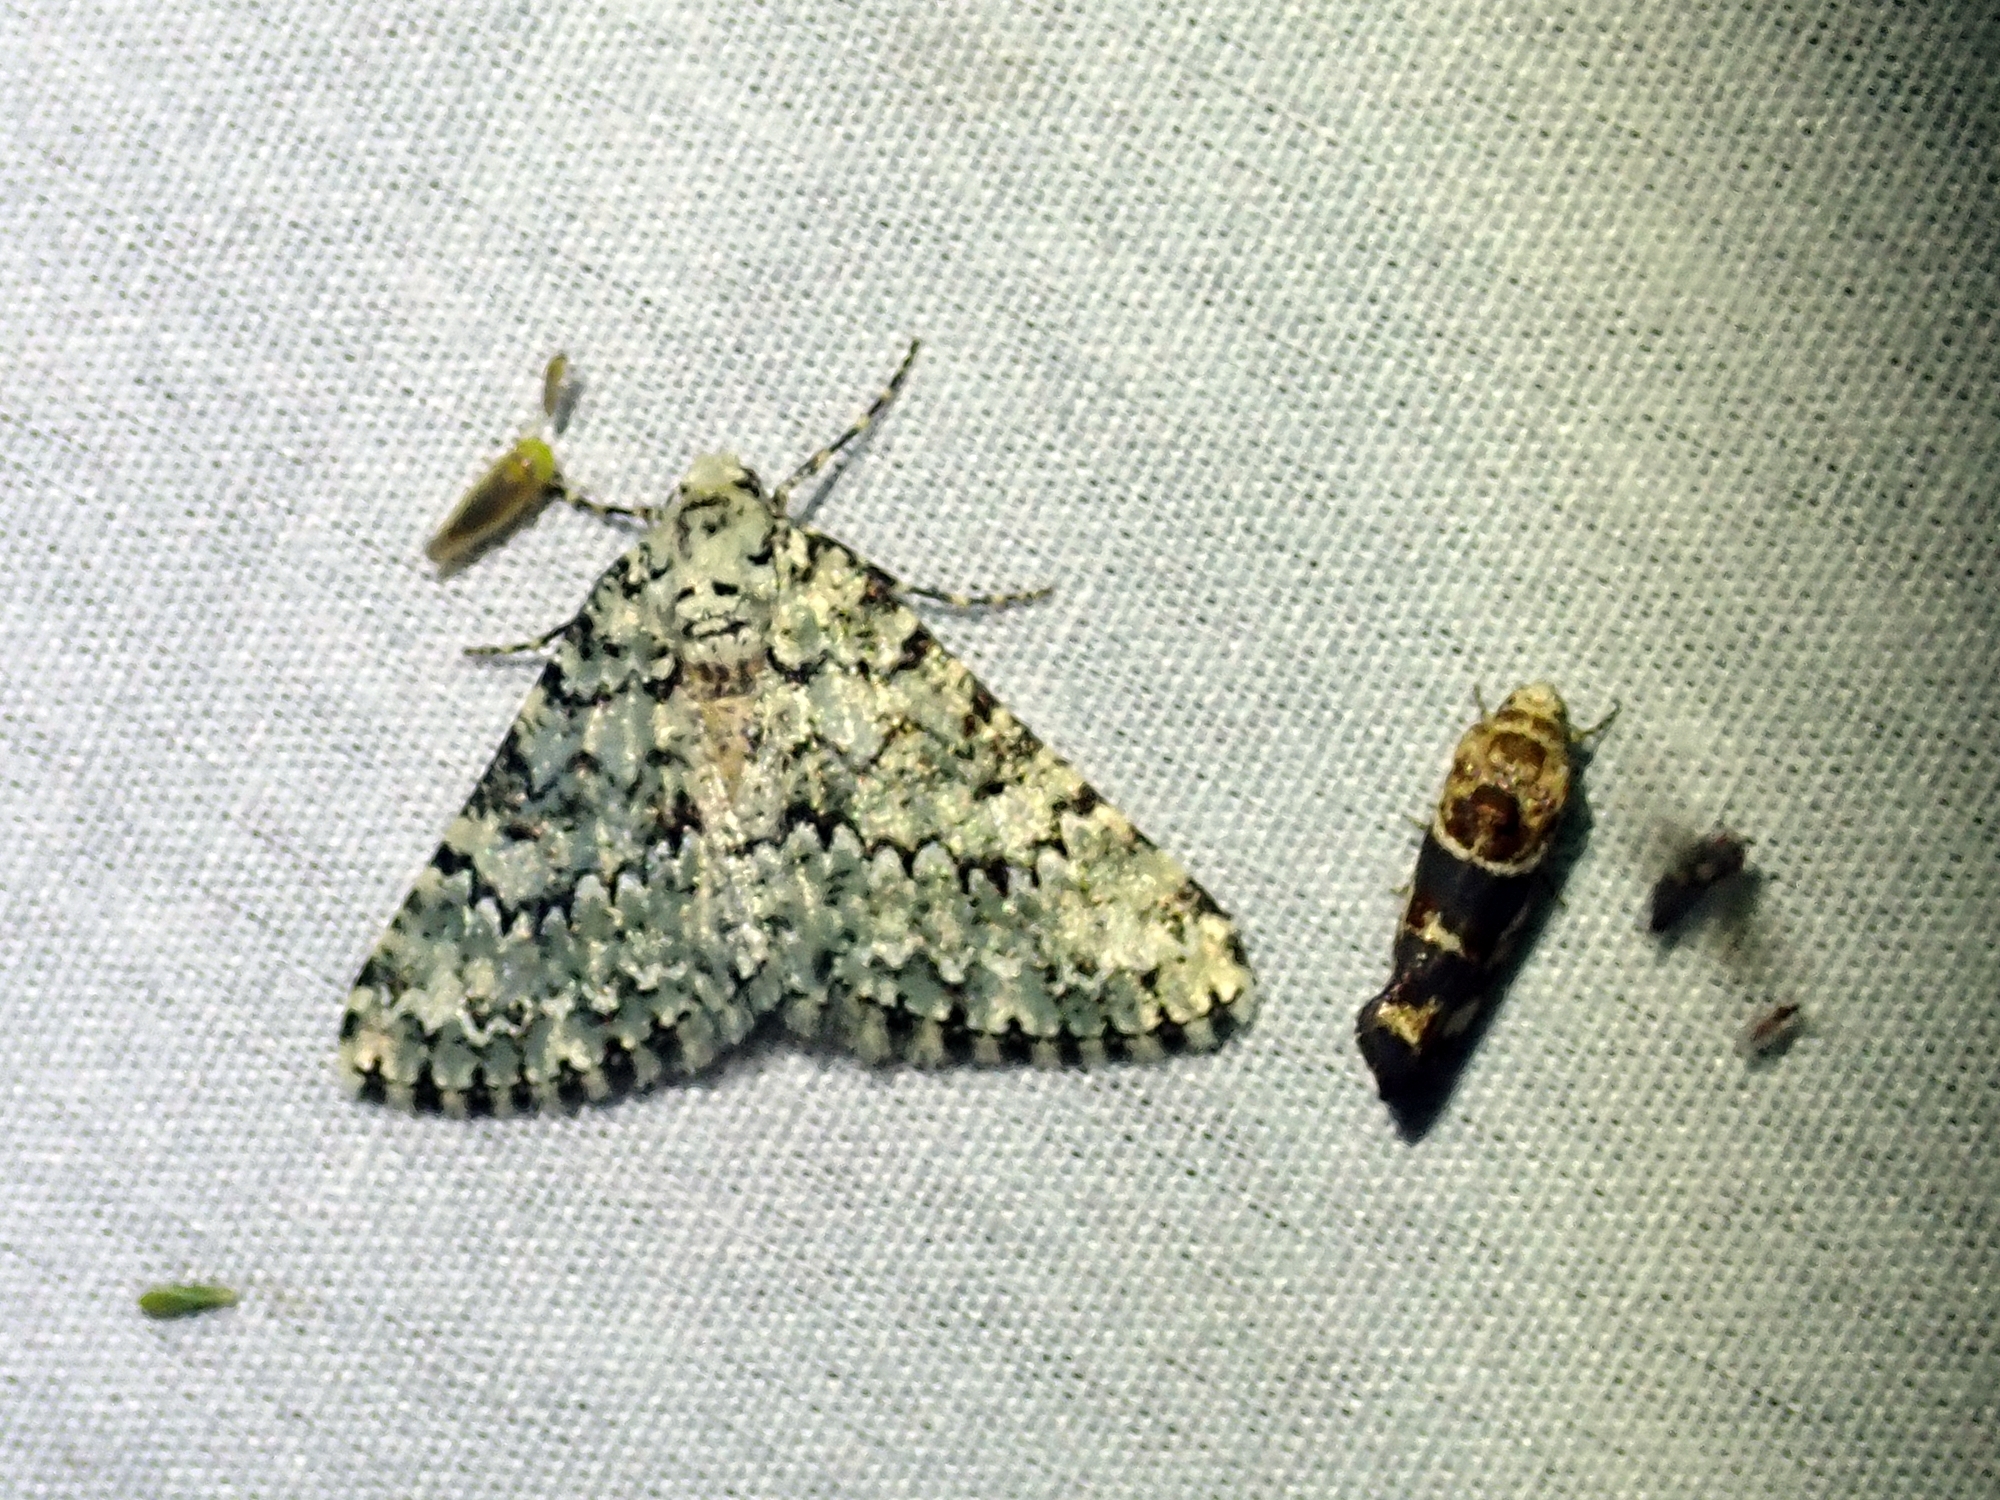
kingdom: Animalia
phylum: Arthropoda
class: Insecta
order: Lepidoptera
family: Geometridae
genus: Tracheops
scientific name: Tracheops bolteri
